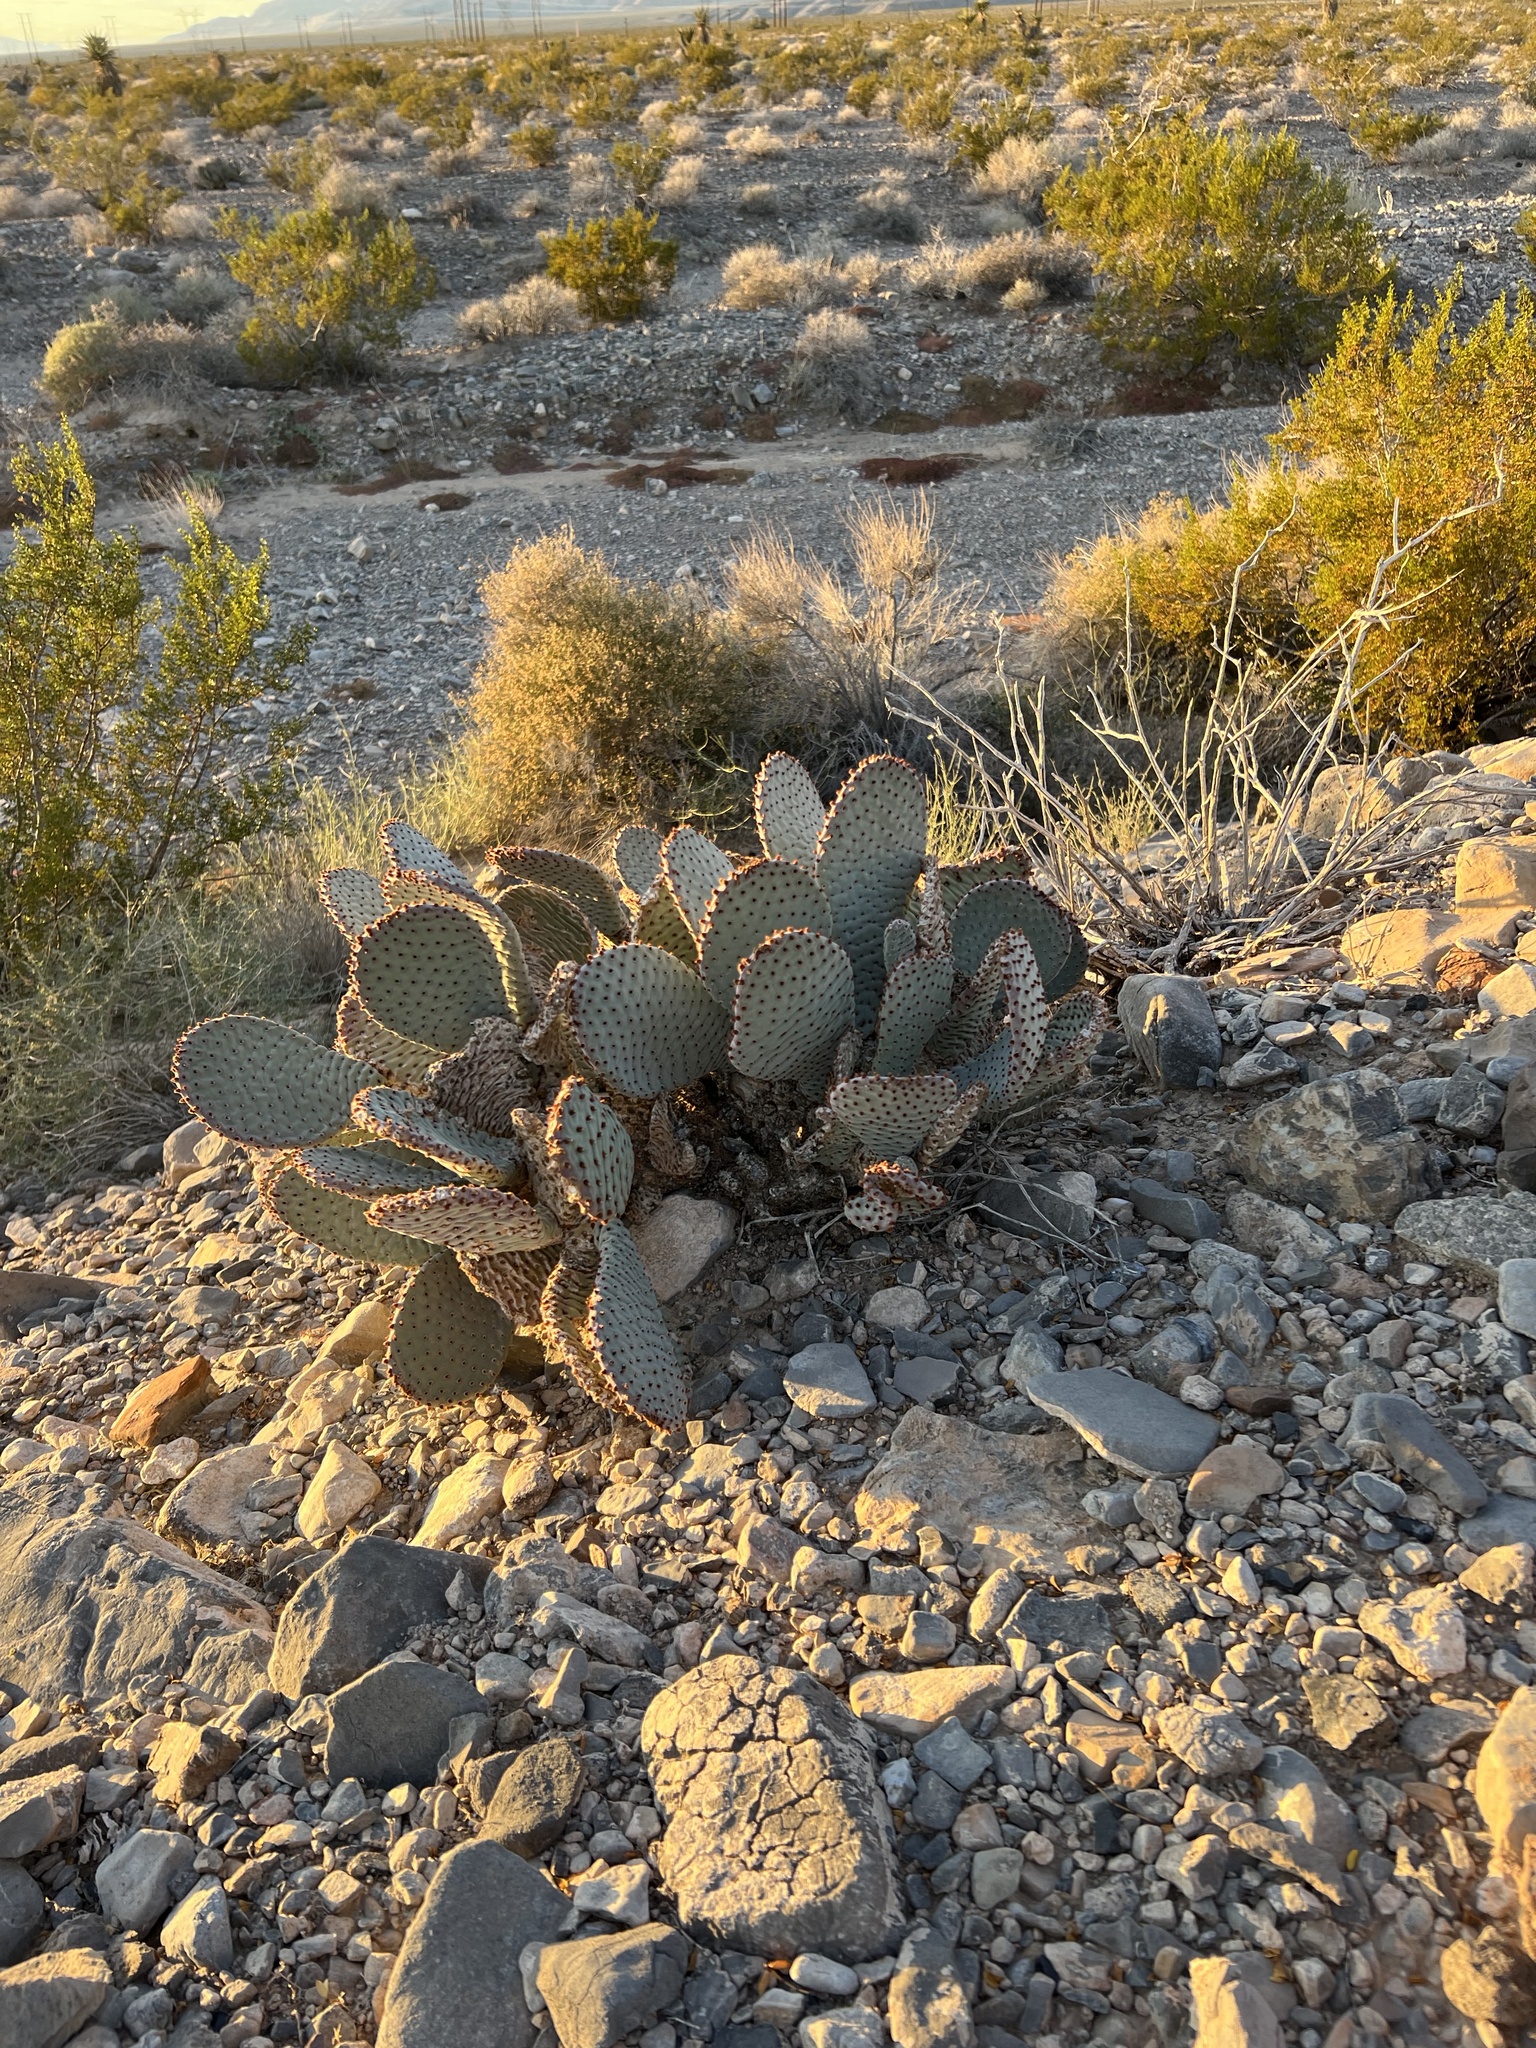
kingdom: Plantae
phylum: Tracheophyta
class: Magnoliopsida
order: Caryophyllales
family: Cactaceae
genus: Opuntia
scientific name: Opuntia basilaris
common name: Beavertail prickly-pear
